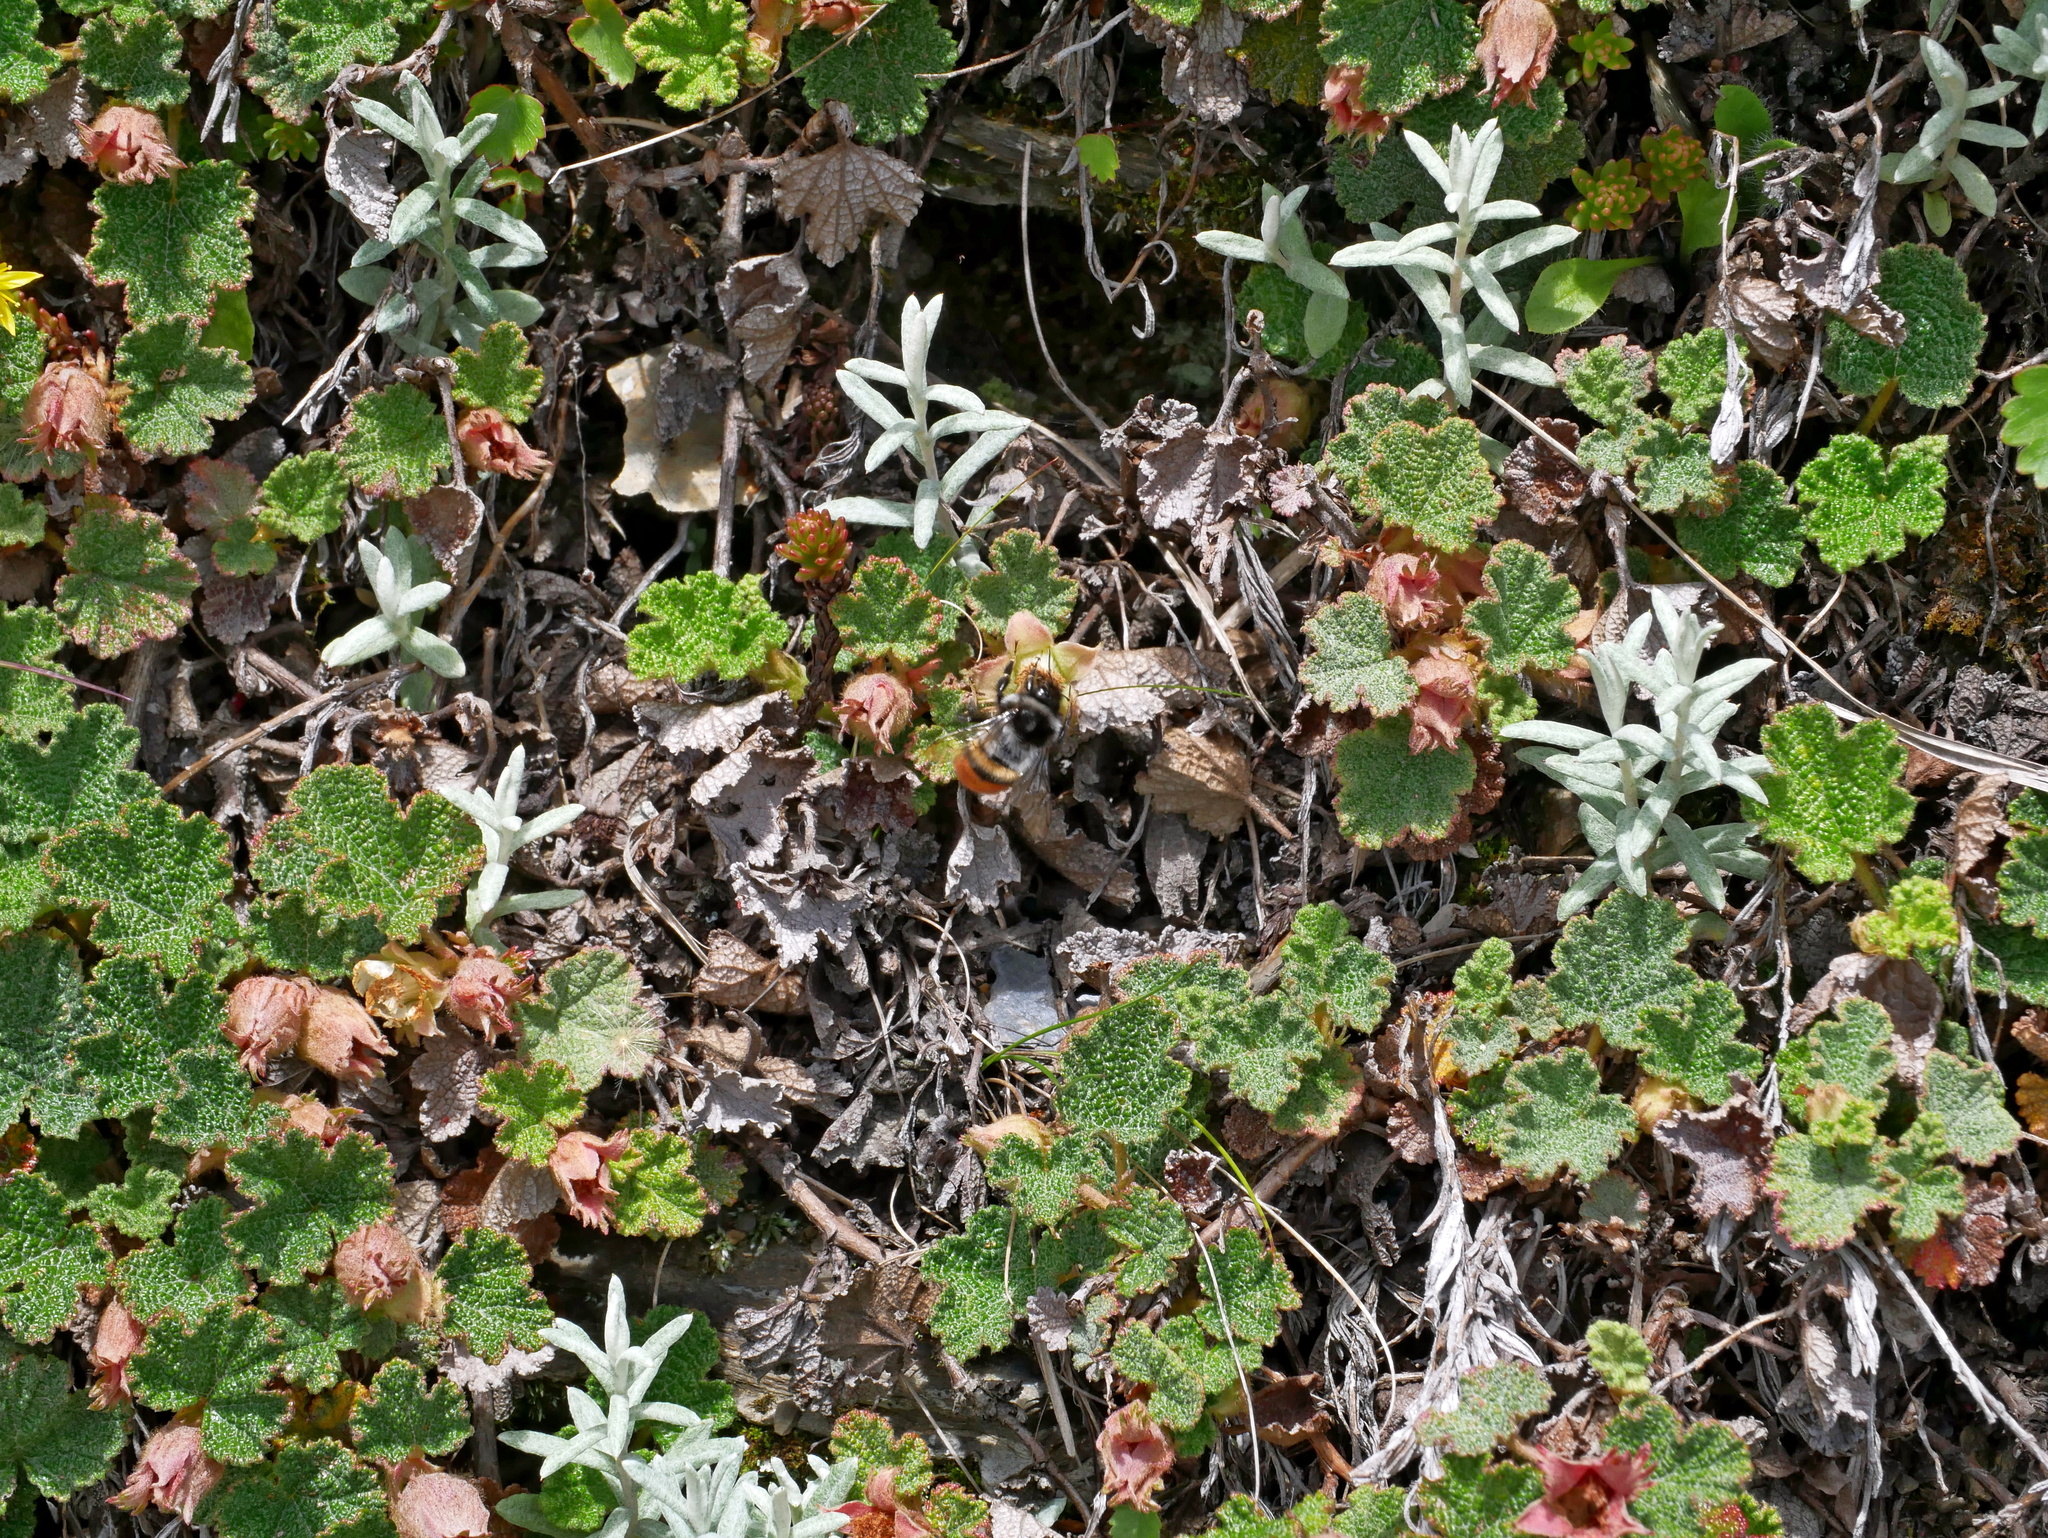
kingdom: Plantae
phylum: Tracheophyta
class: Magnoliopsida
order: Rosales
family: Rosaceae
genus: Rubus
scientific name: Rubus rolfei
